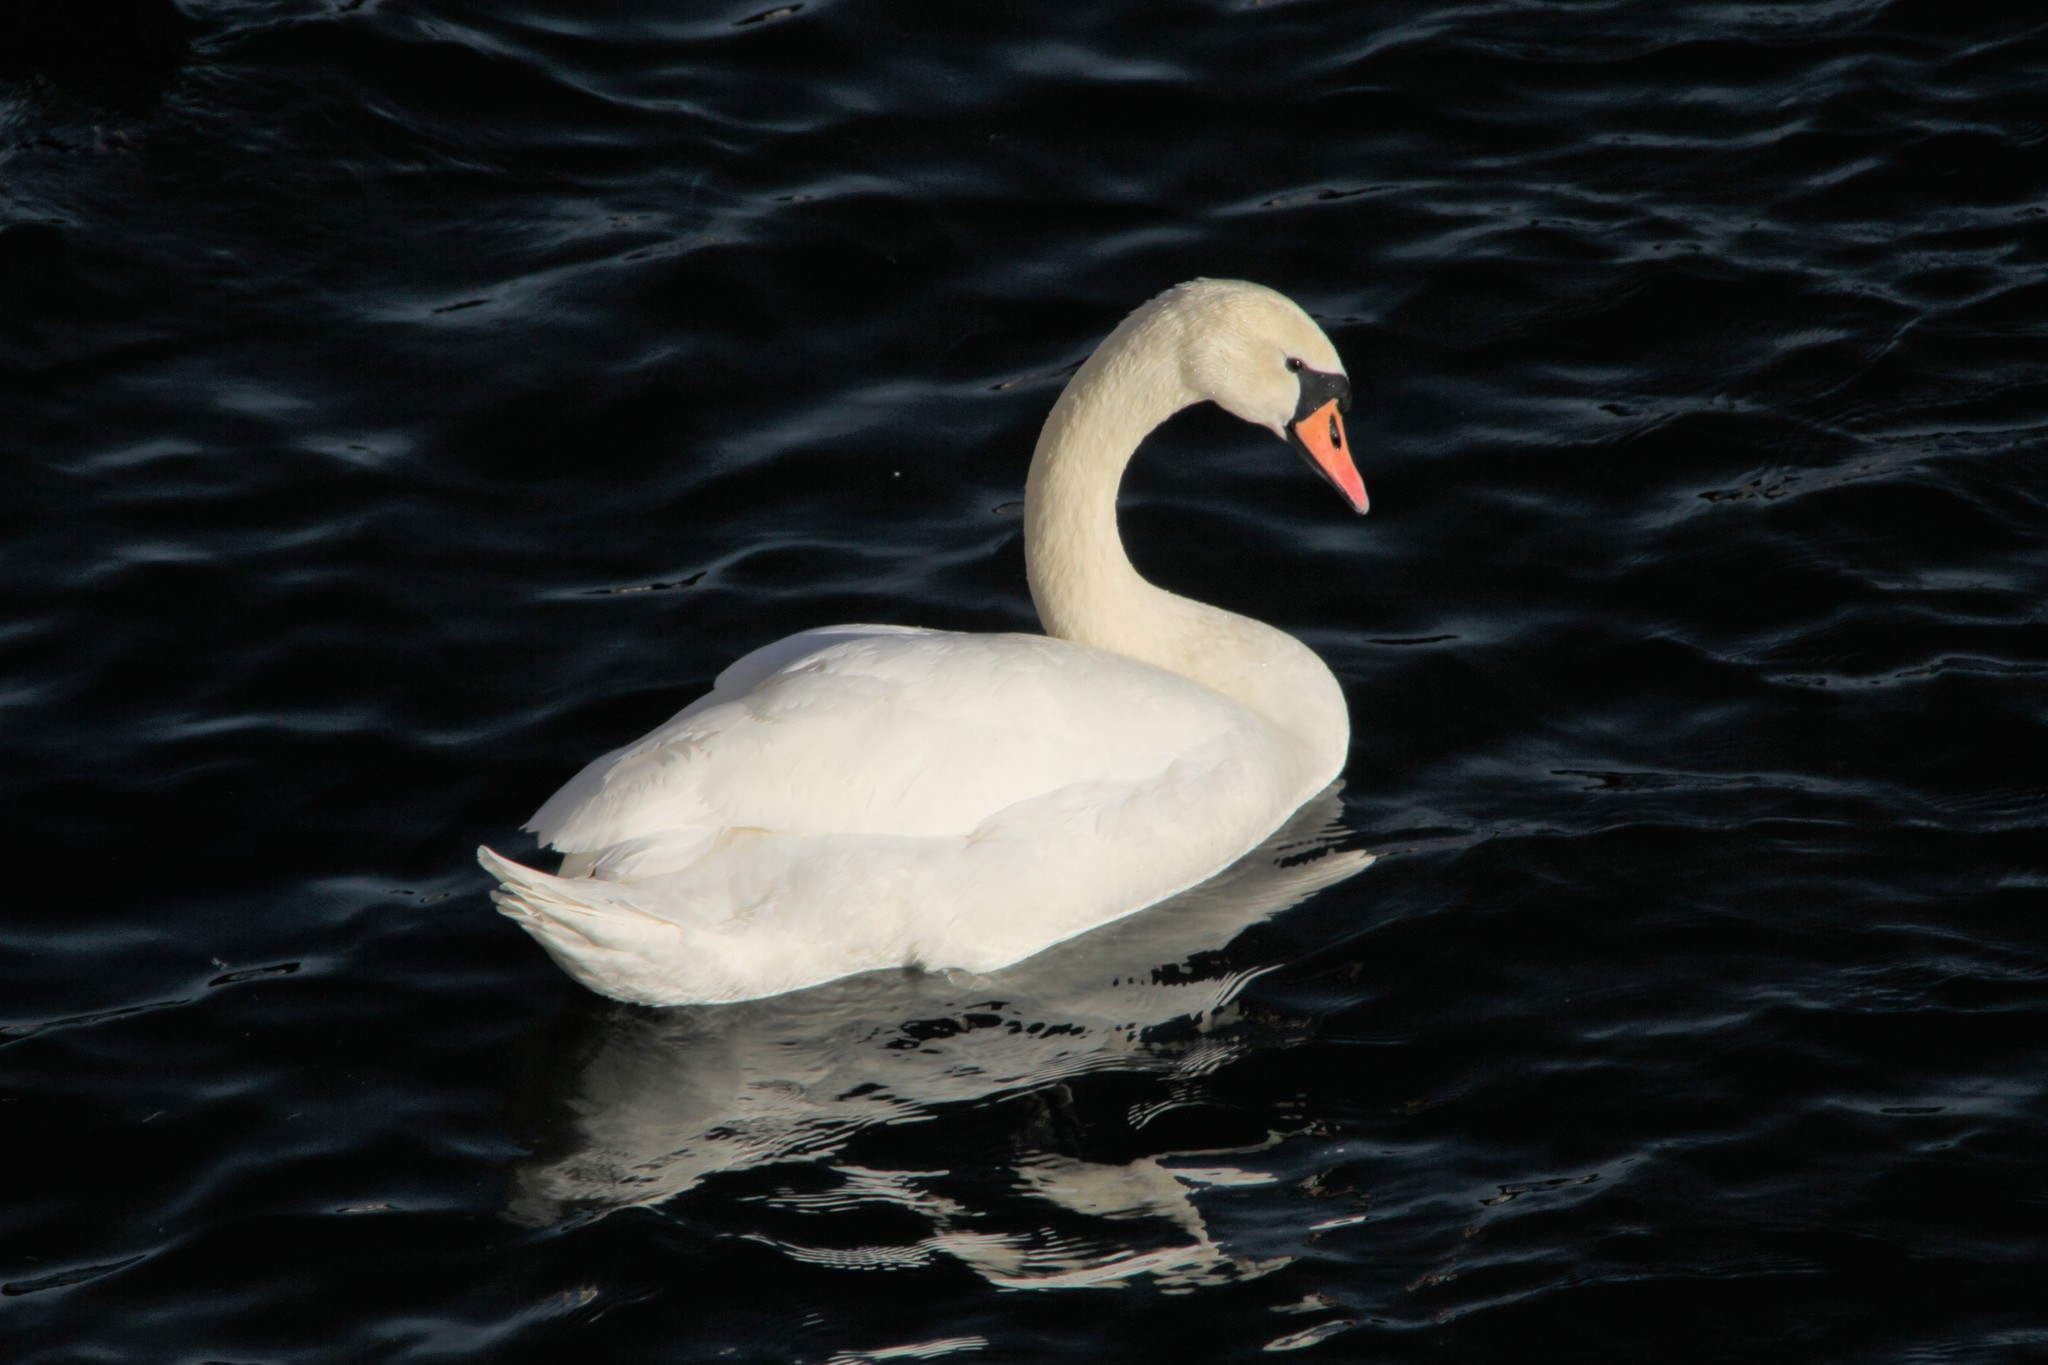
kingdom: Animalia
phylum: Chordata
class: Aves
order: Anseriformes
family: Anatidae
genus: Cygnus
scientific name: Cygnus olor
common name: Mute swan
